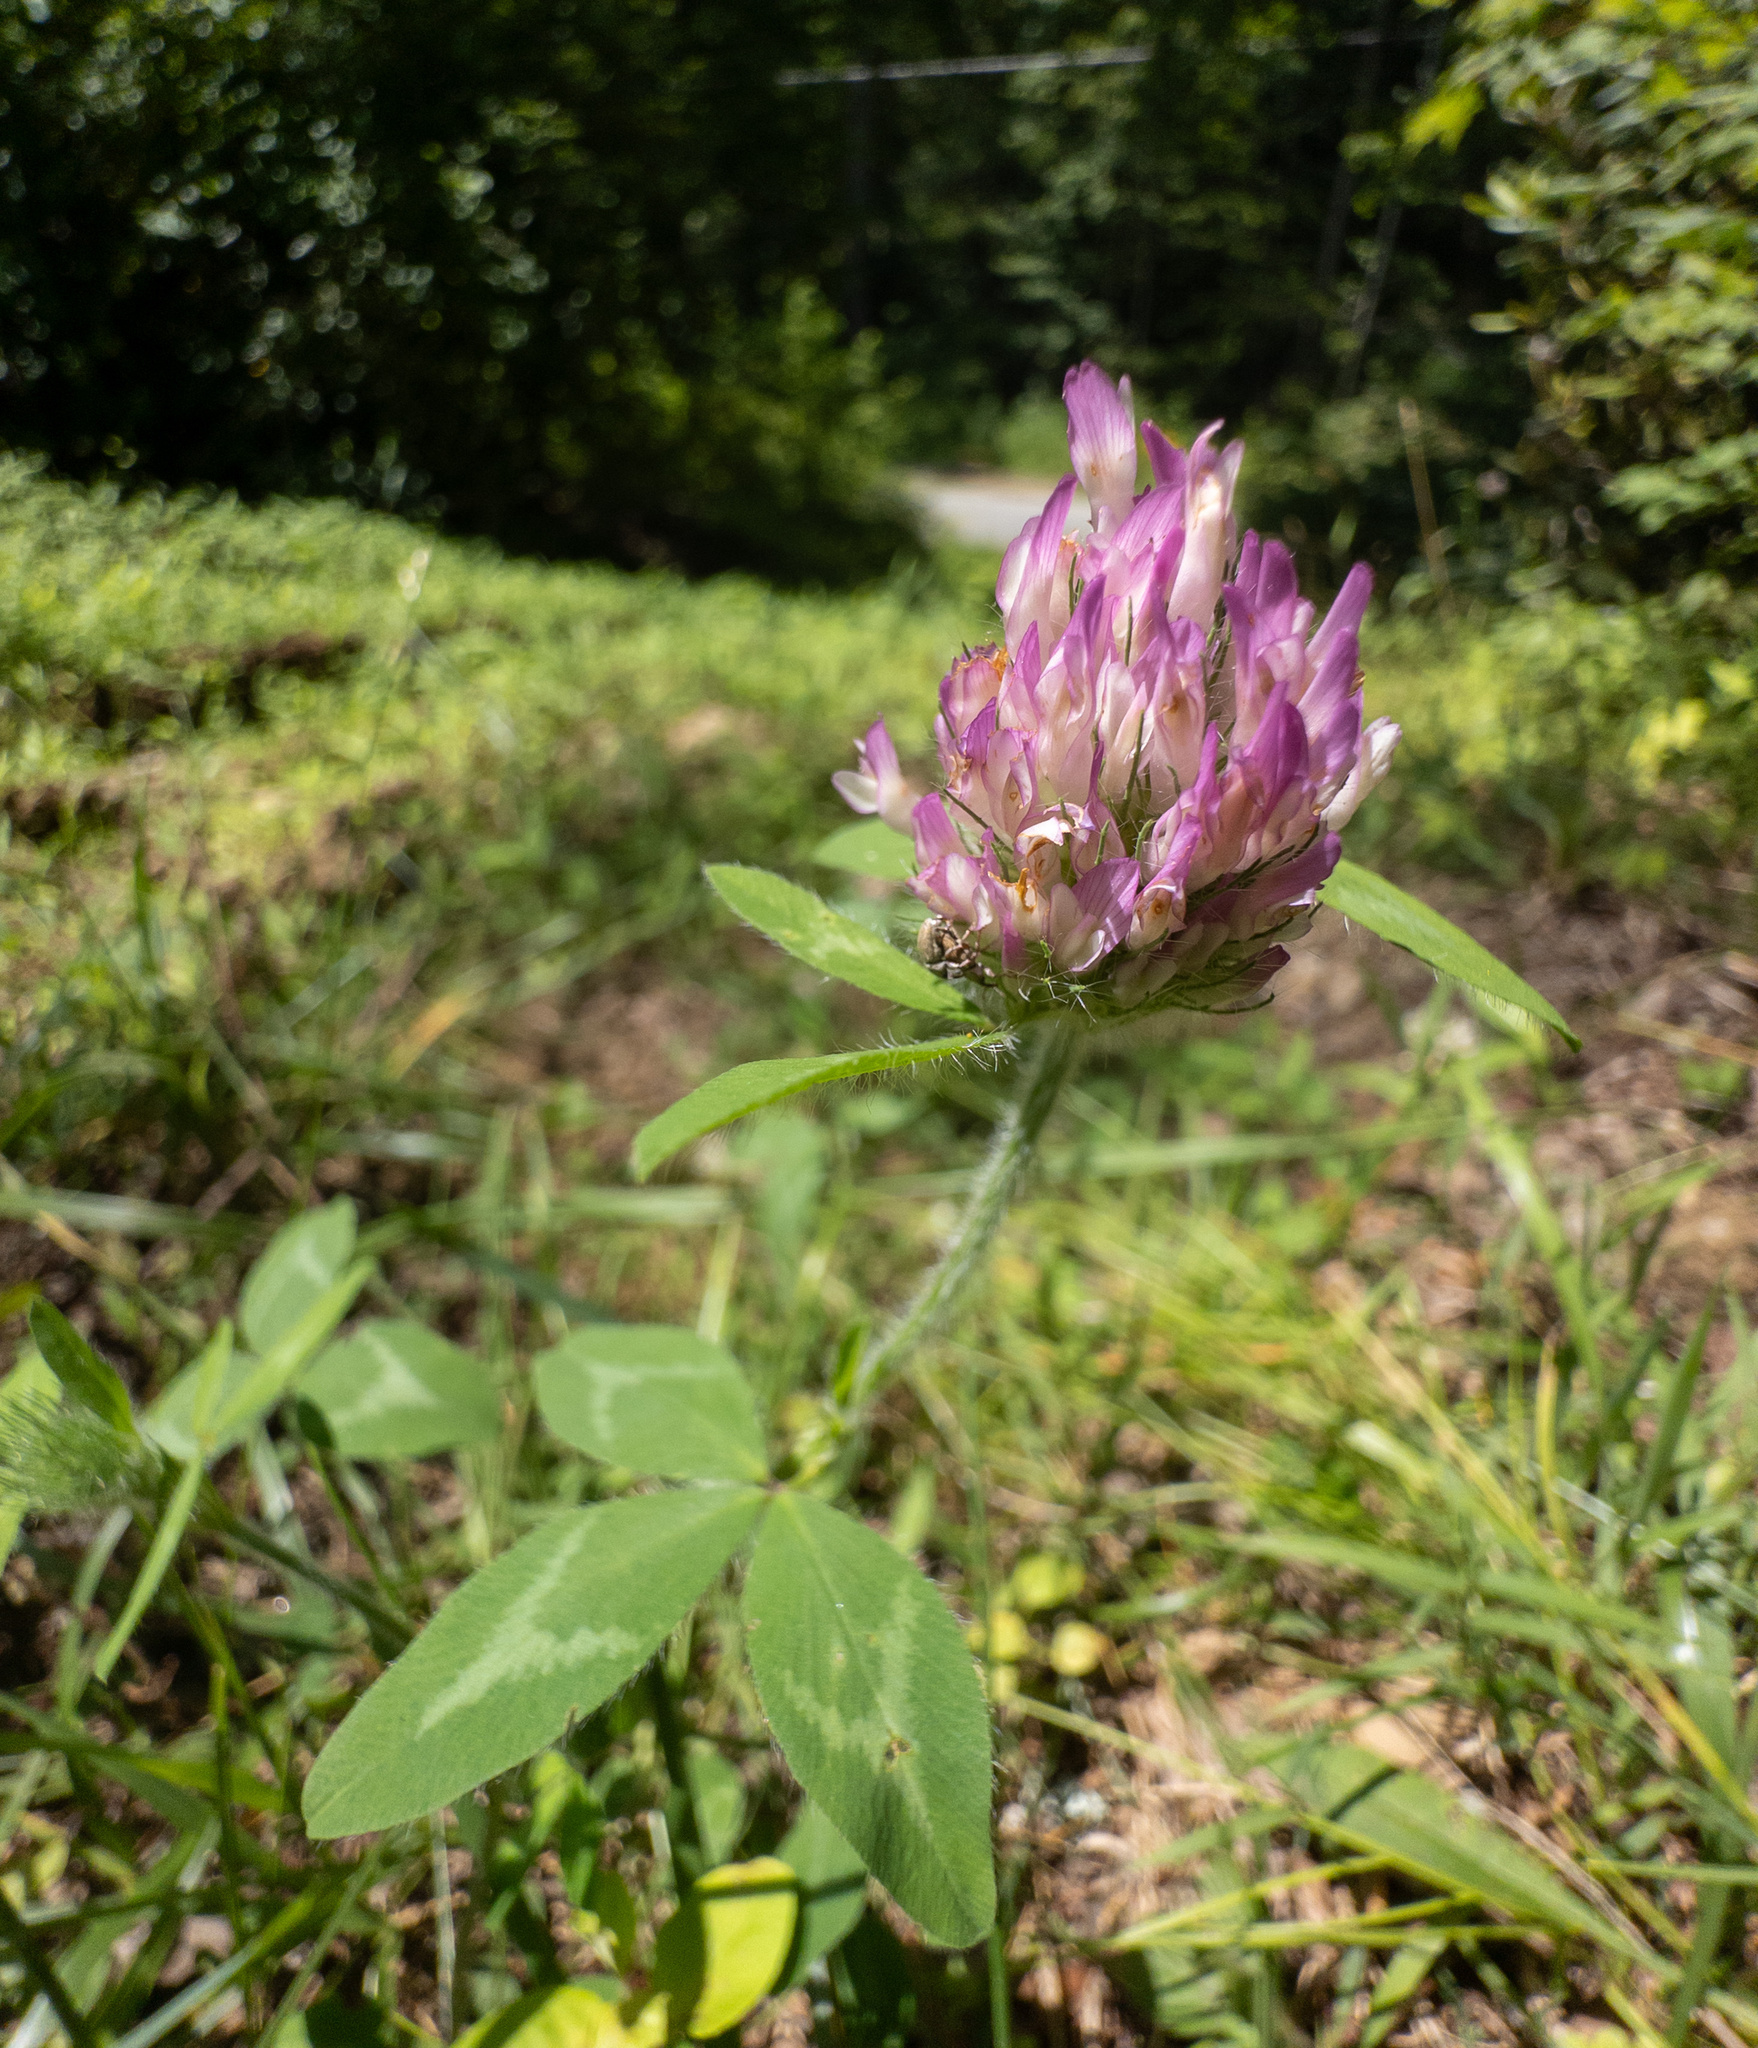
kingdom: Plantae
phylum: Tracheophyta
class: Magnoliopsida
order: Fabales
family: Fabaceae
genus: Trifolium
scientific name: Trifolium pratense
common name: Red clover
